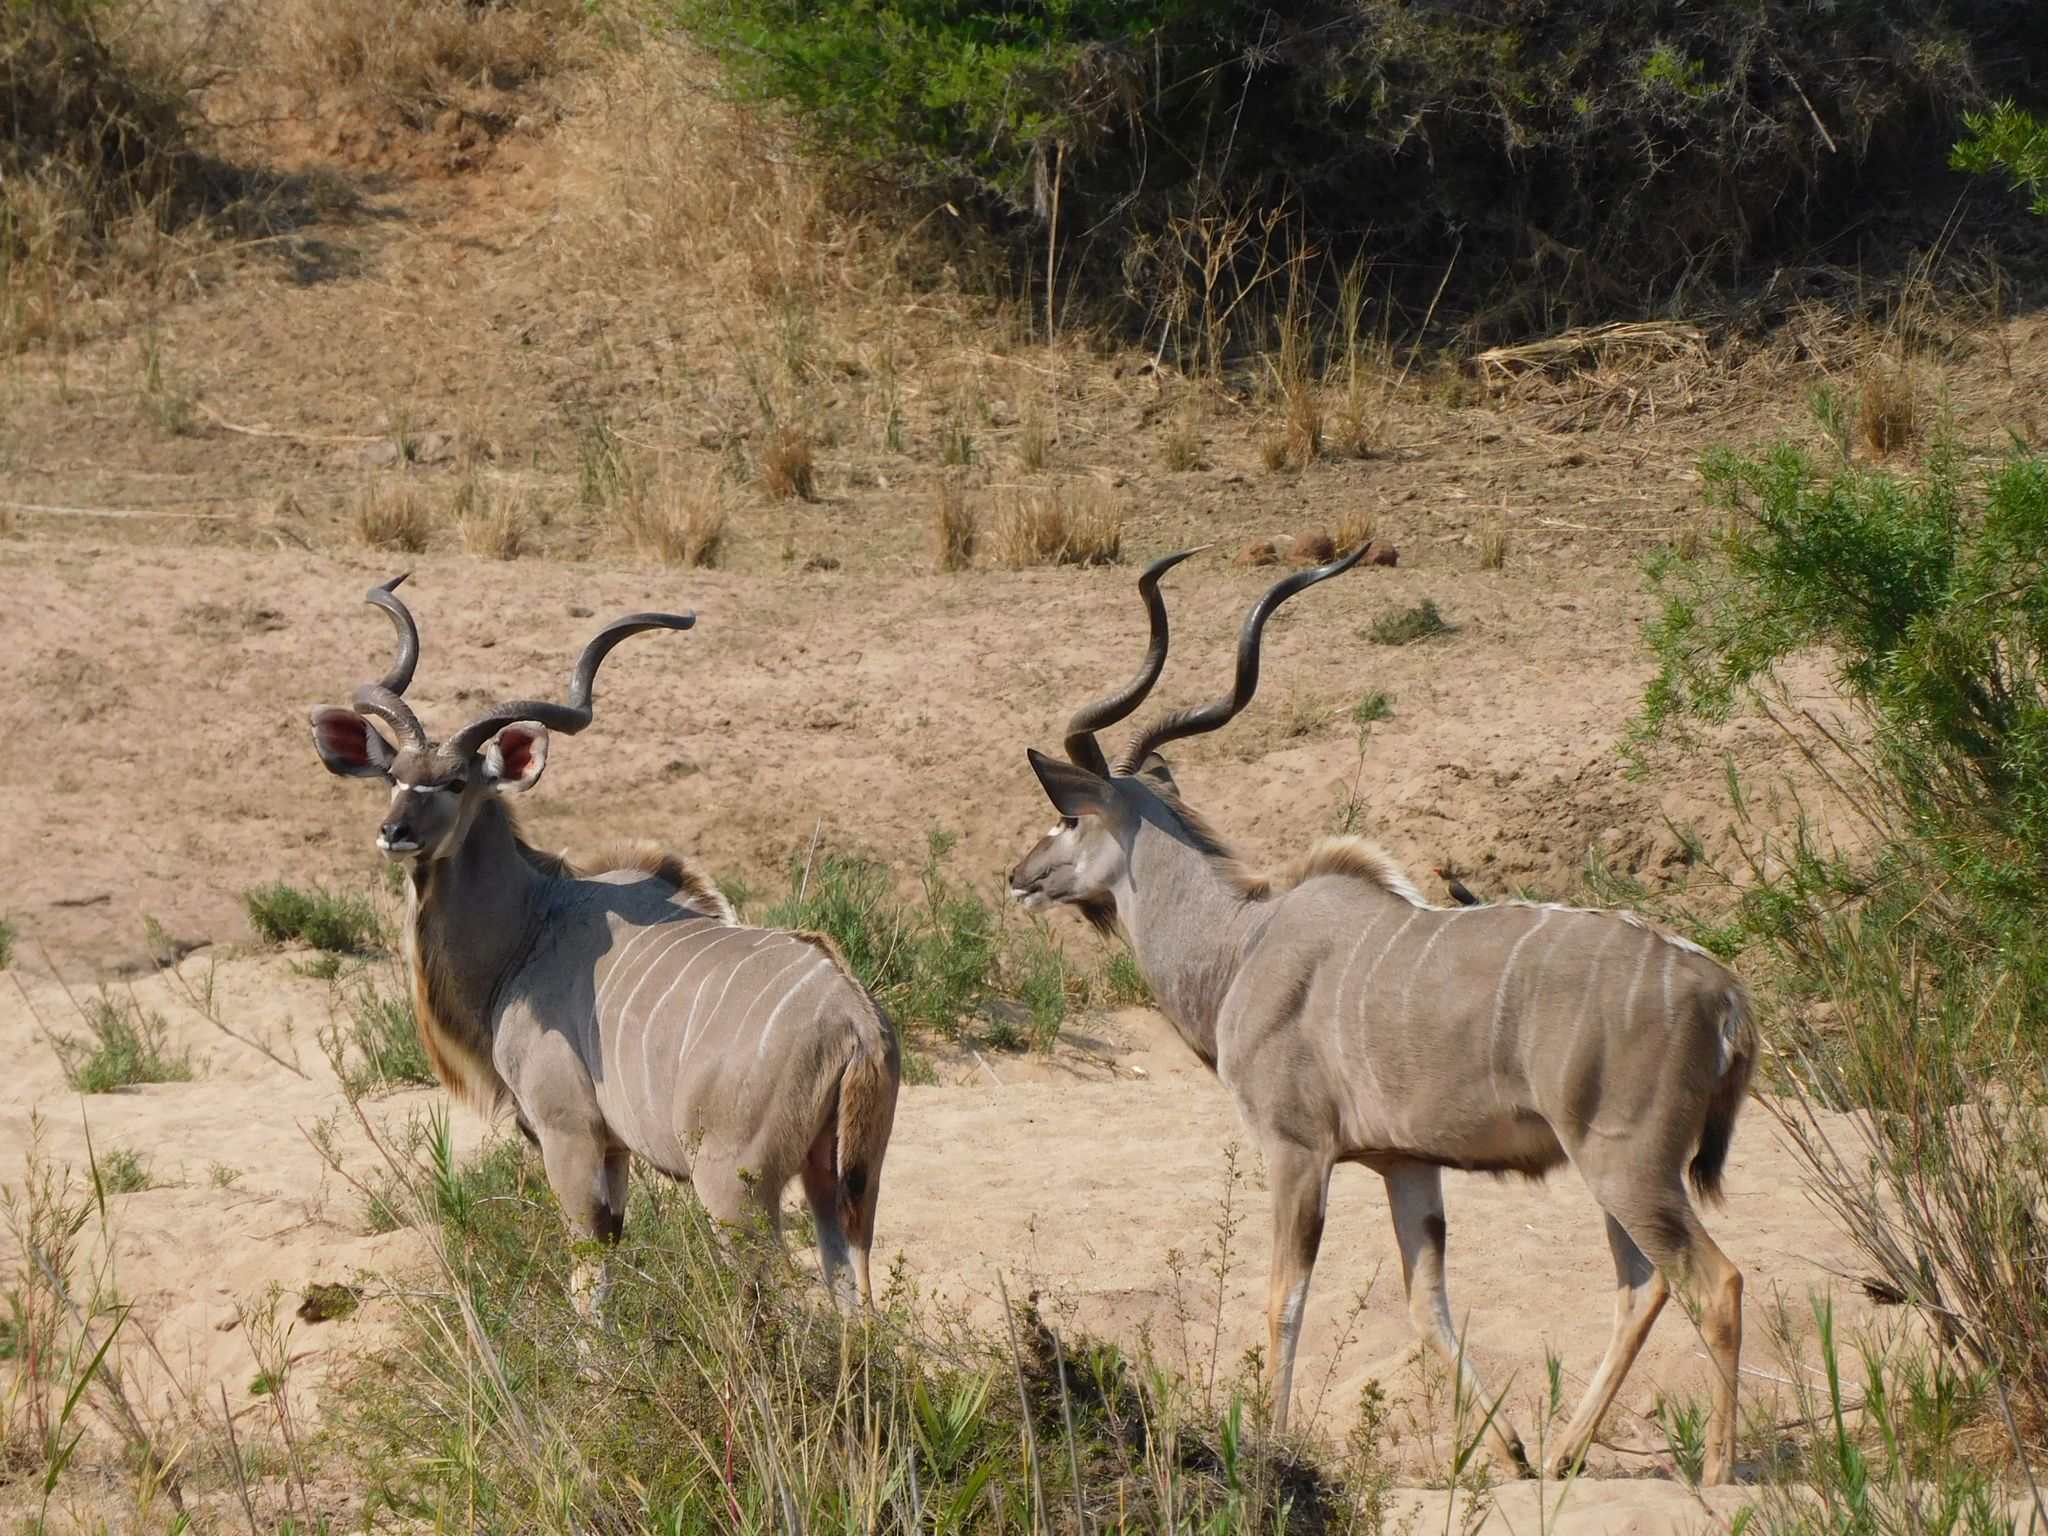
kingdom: Animalia
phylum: Chordata
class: Mammalia
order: Artiodactyla
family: Bovidae
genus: Tragelaphus
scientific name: Tragelaphus strepsiceros
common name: Greater kudu
